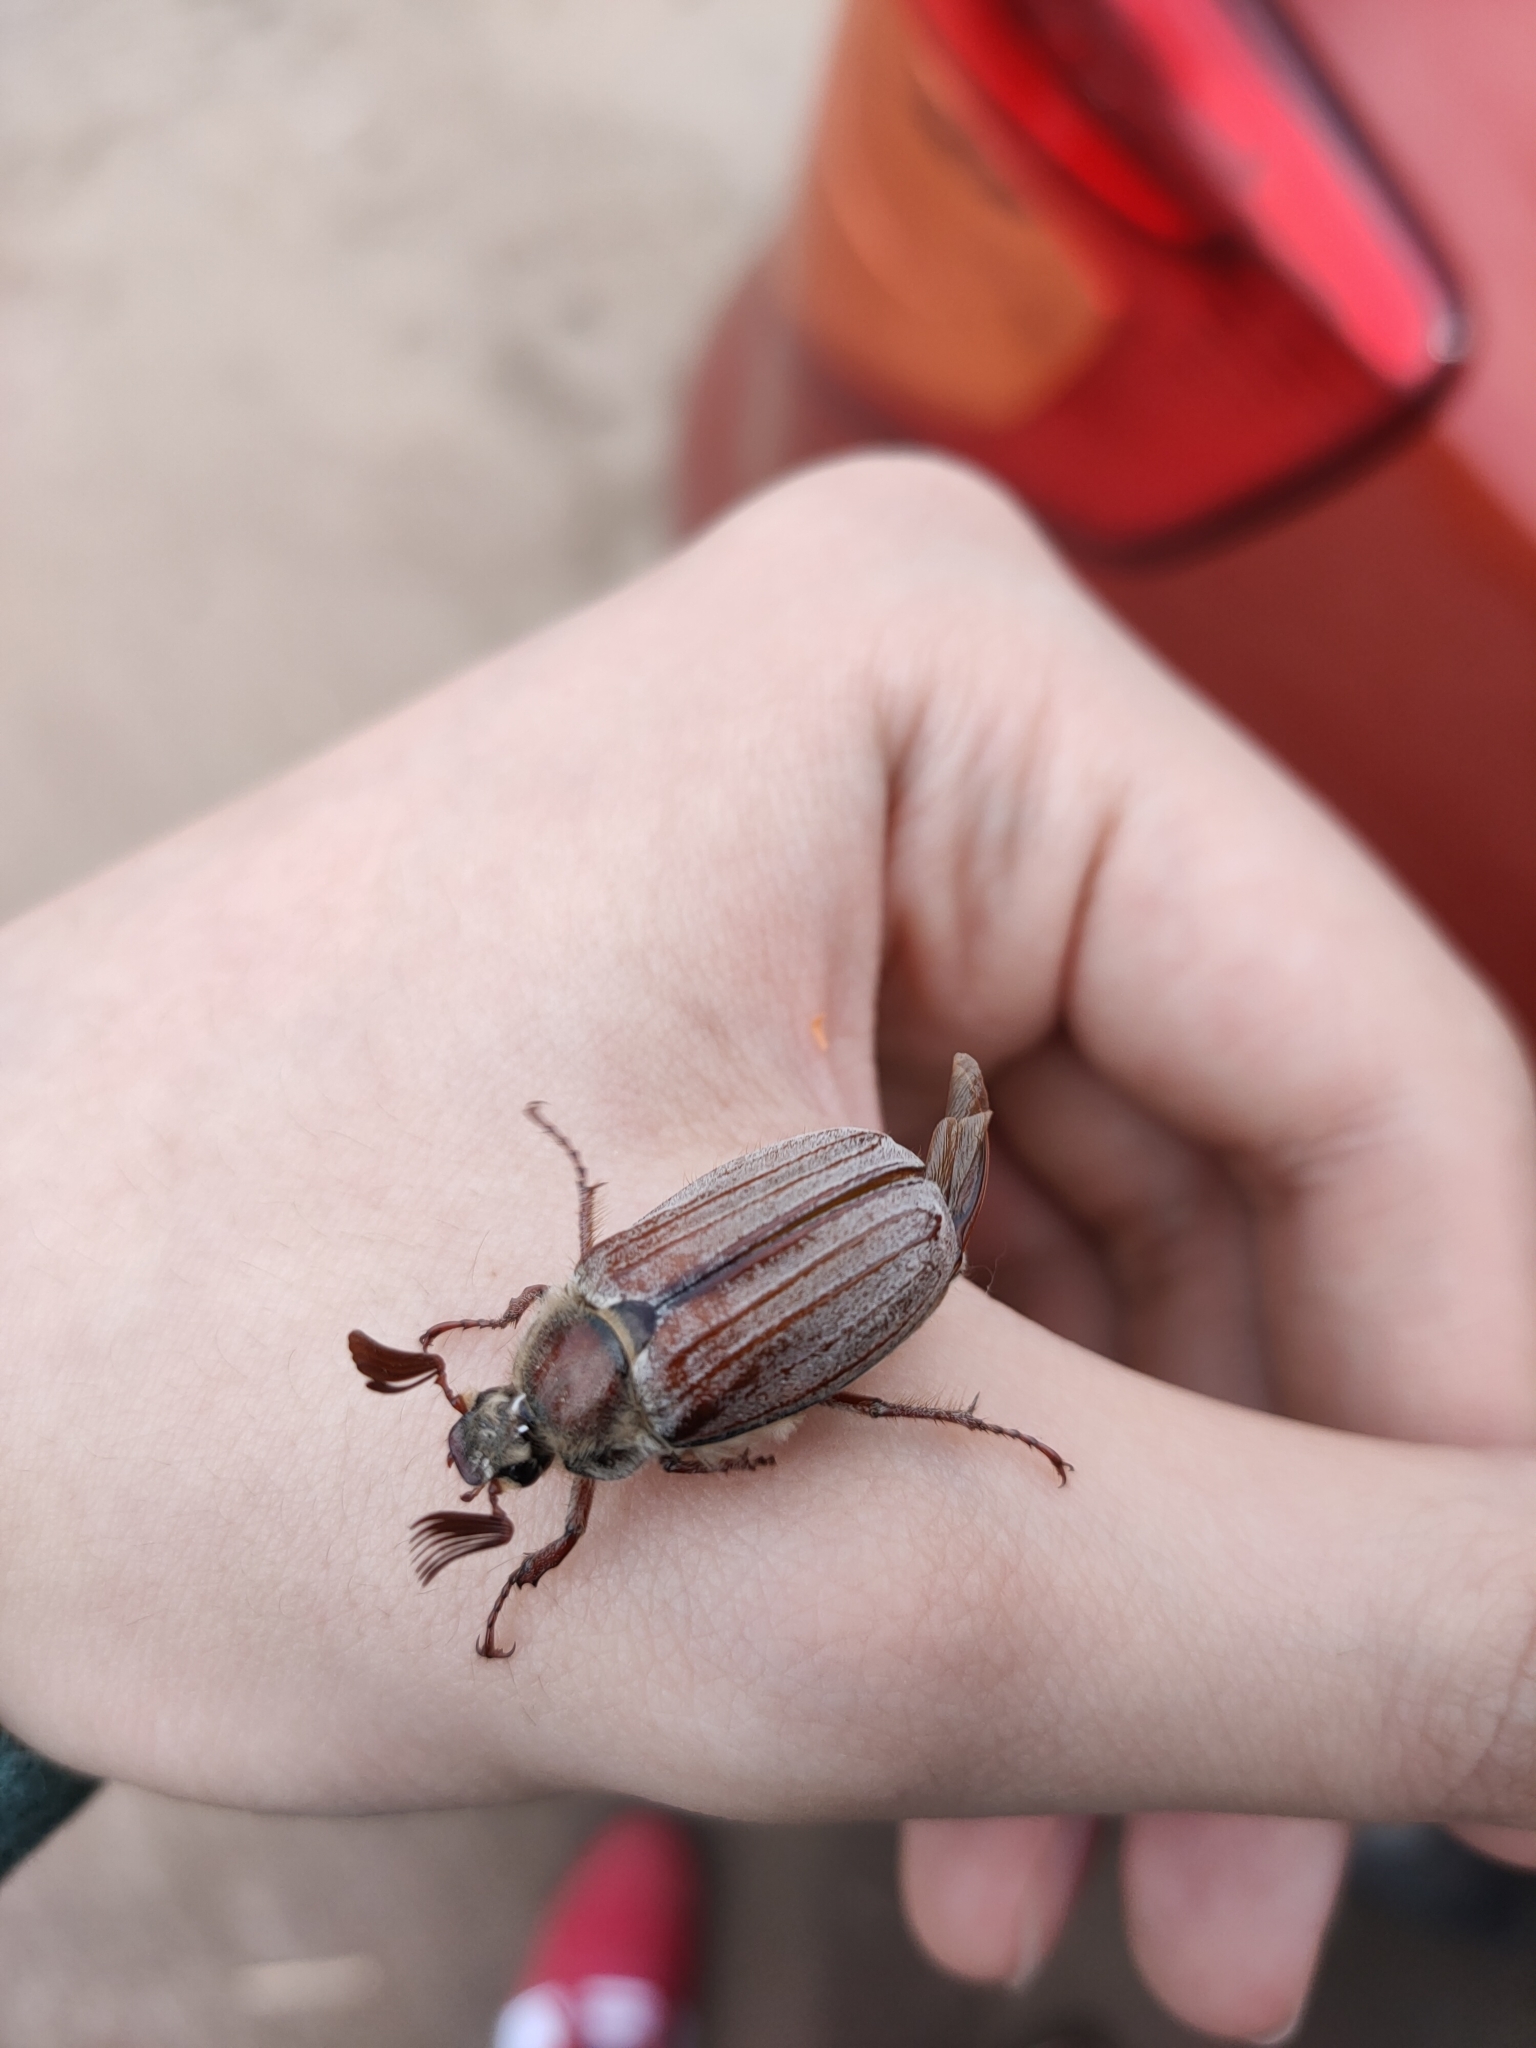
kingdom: Animalia
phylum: Arthropoda
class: Insecta
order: Coleoptera
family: Scarabaeidae
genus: Melolontha
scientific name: Melolontha hippocastani
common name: Chestnut cockchafer
